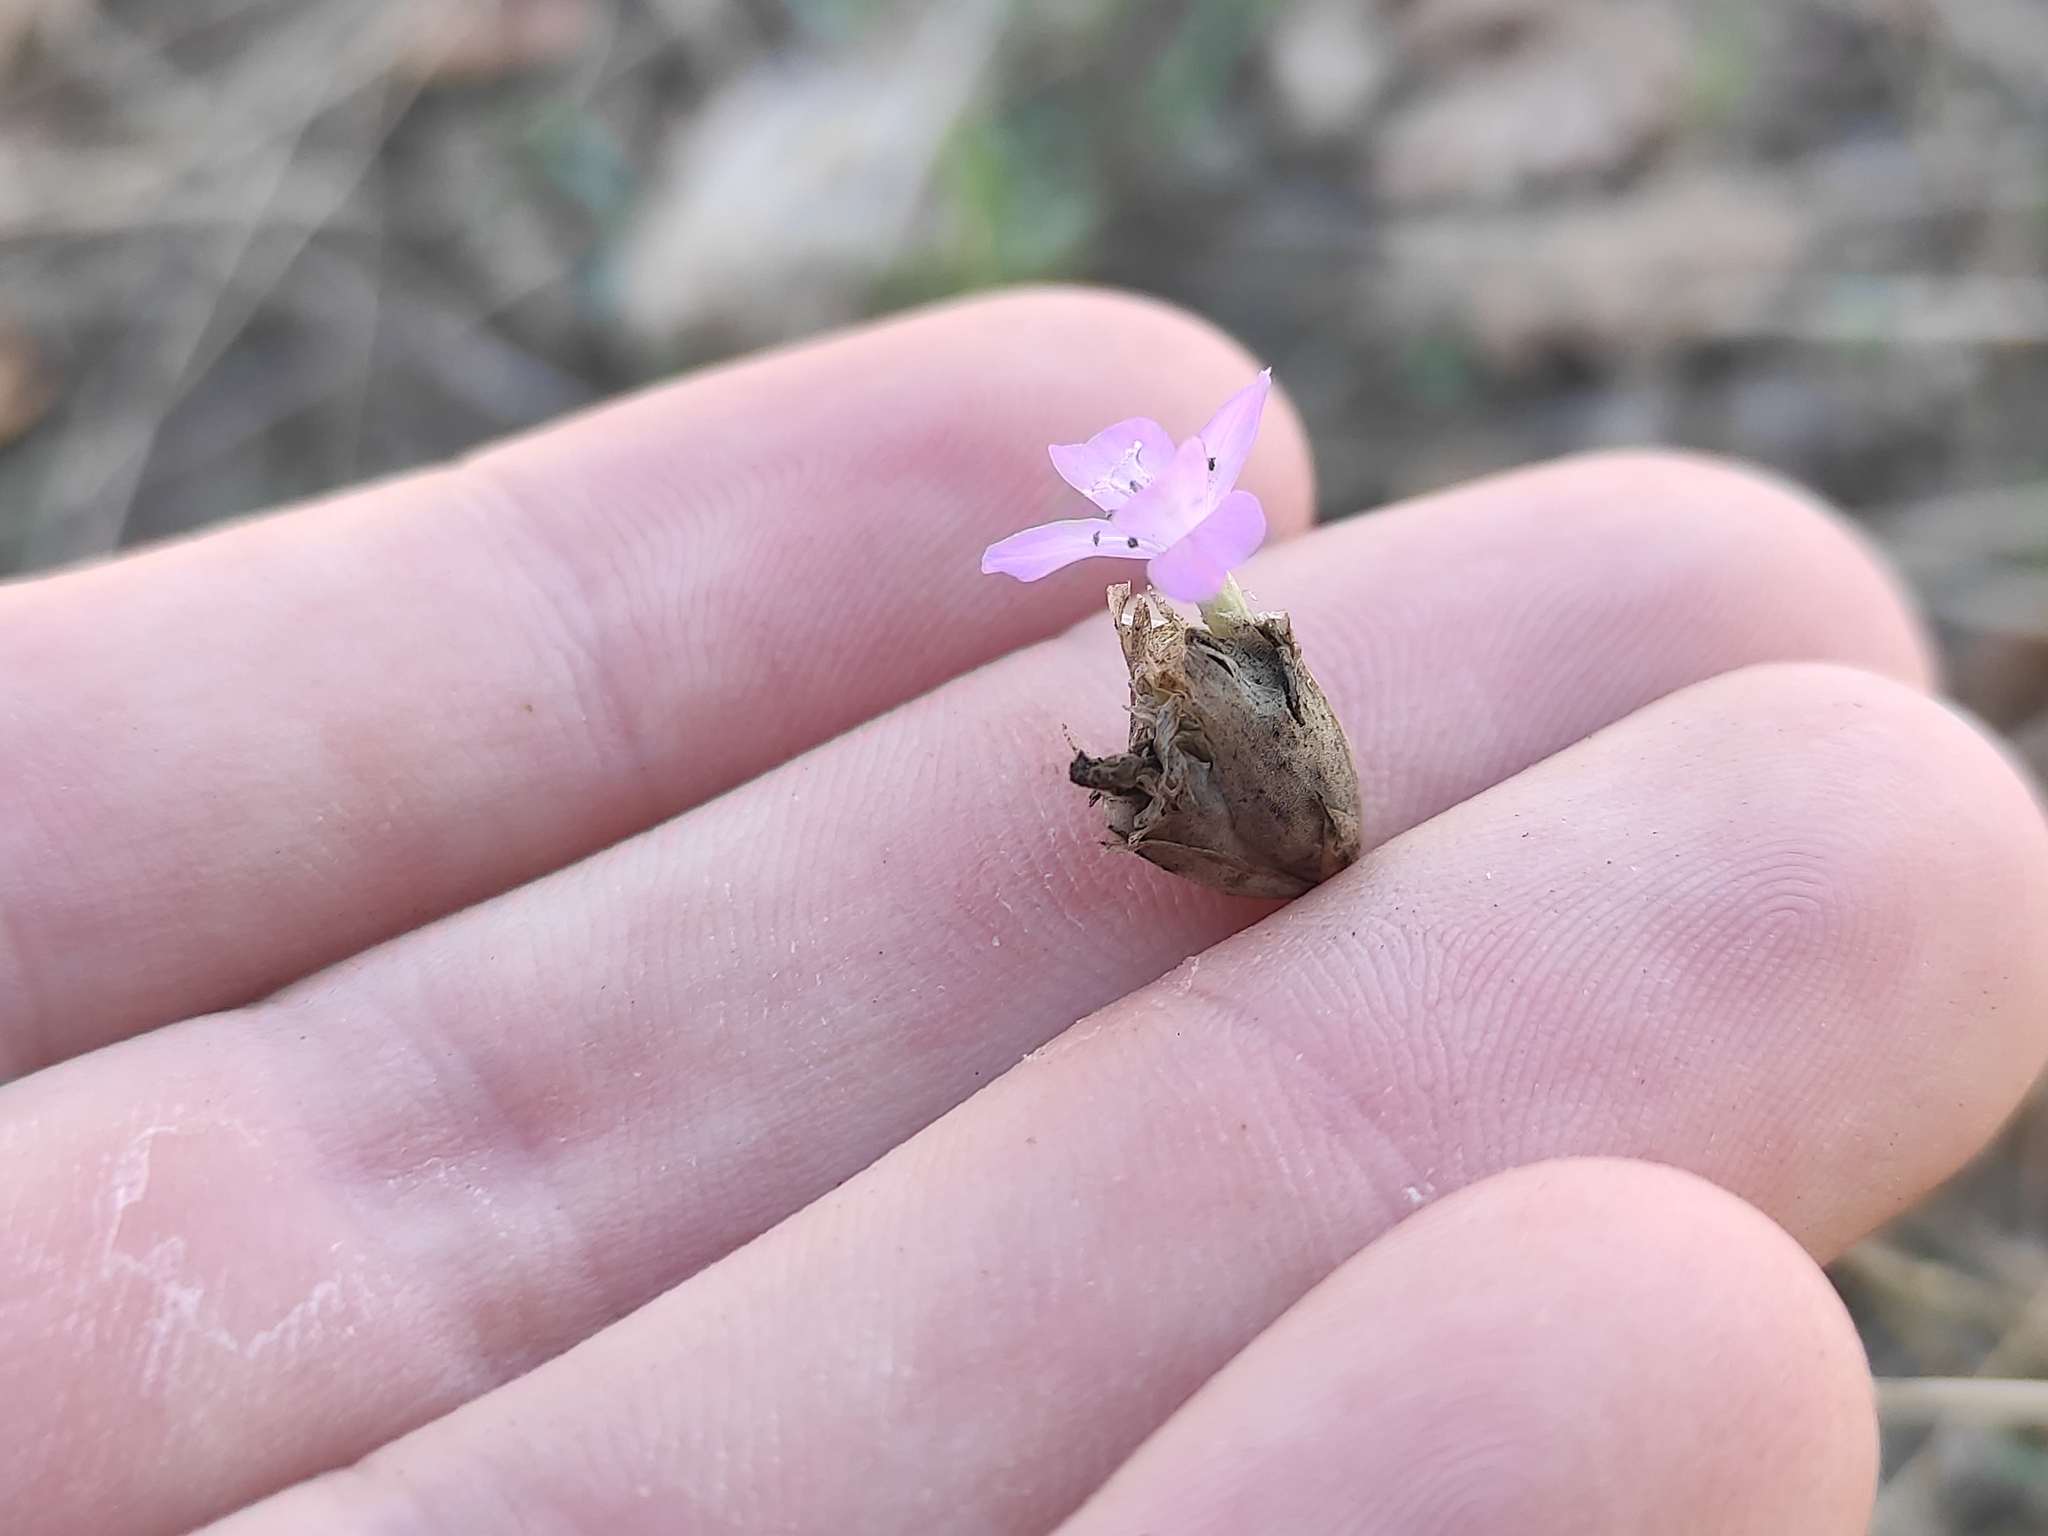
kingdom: Plantae
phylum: Tracheophyta
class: Magnoliopsida
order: Caryophyllales
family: Caryophyllaceae
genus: Petrorhagia
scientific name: Petrorhagia prolifera
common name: Proliferous pink
